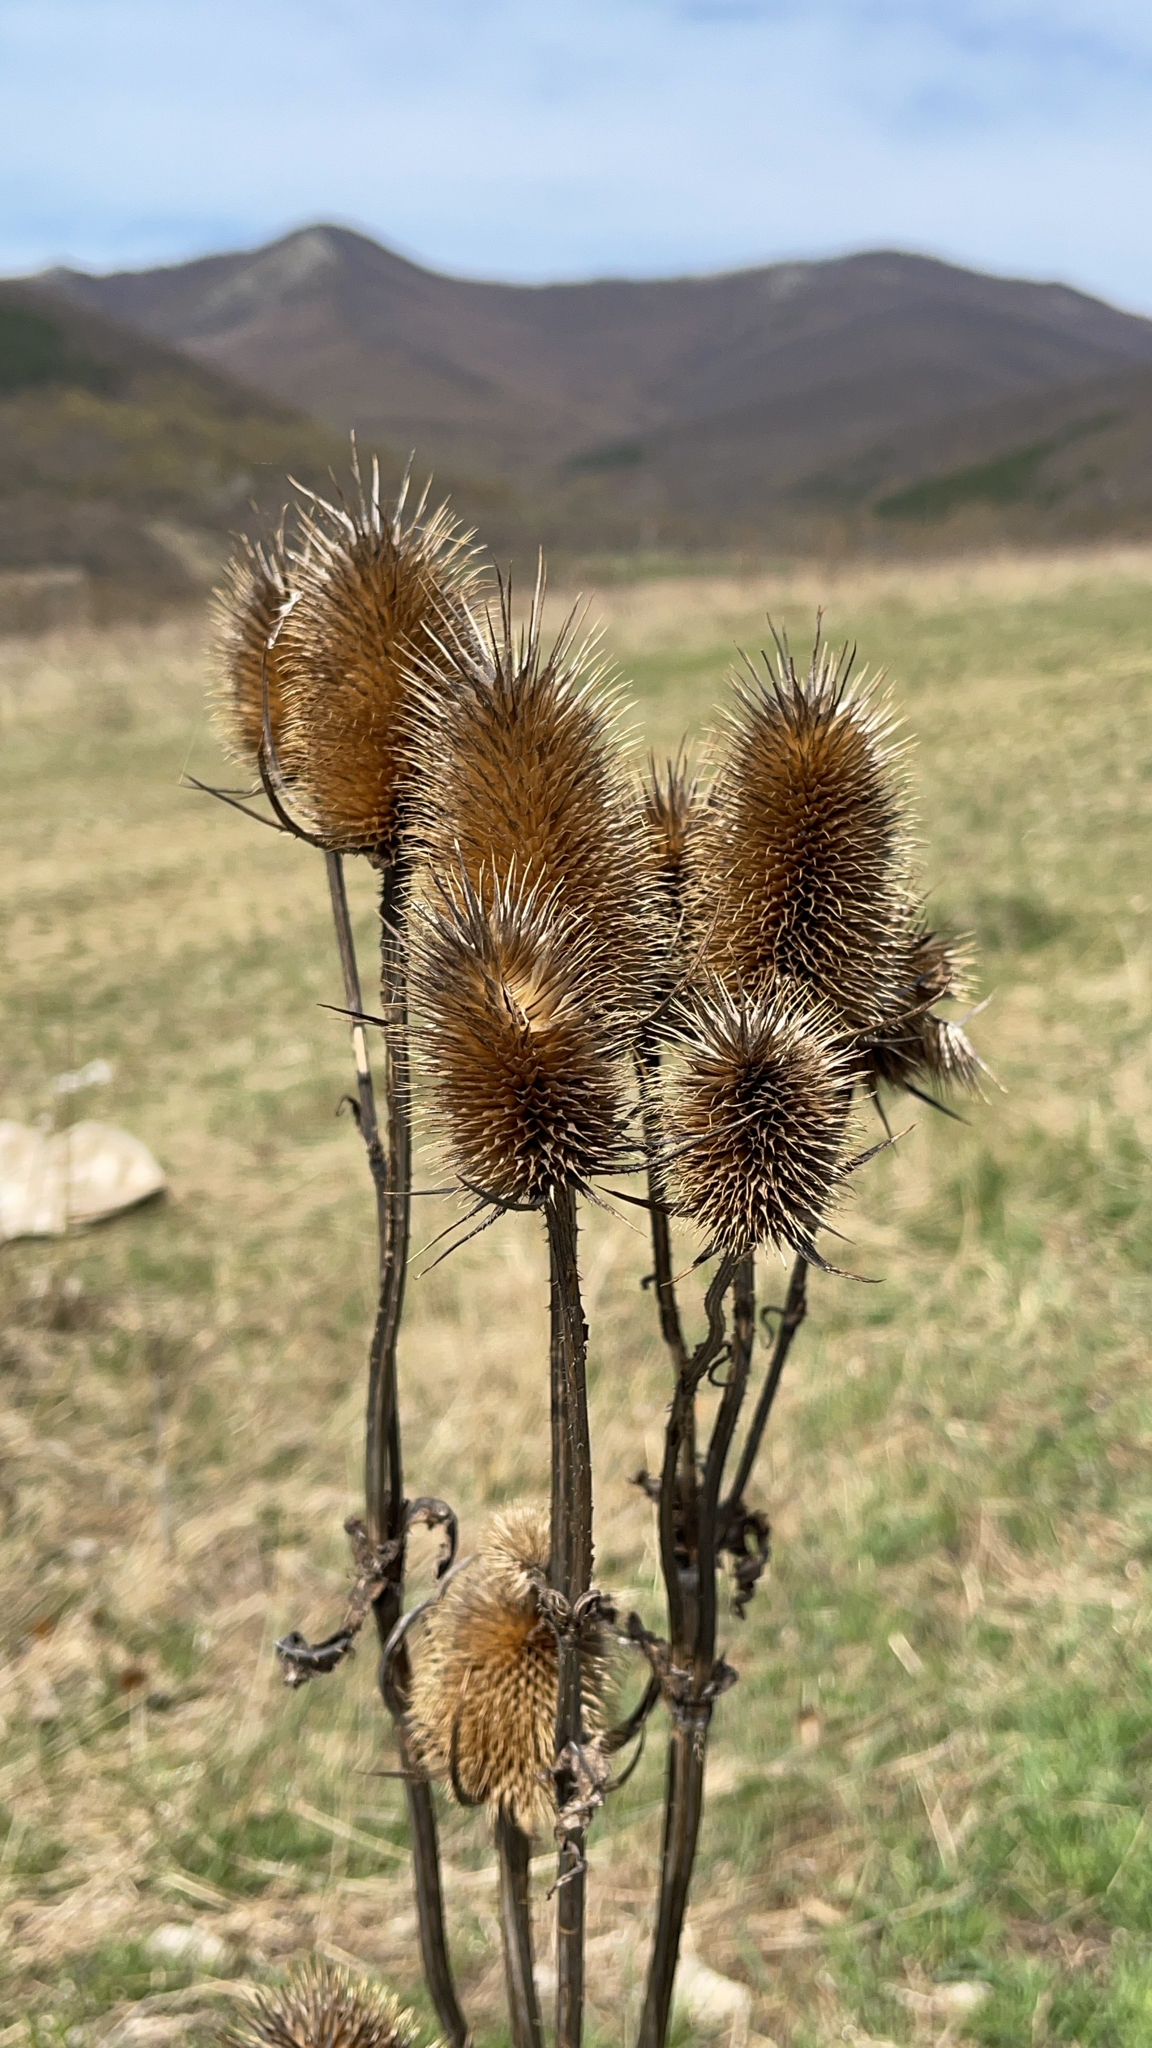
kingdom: Plantae
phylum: Tracheophyta
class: Magnoliopsida
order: Dipsacales
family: Caprifoliaceae
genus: Dipsacus
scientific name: Dipsacus laciniatus
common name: Cut-leaved teasel
